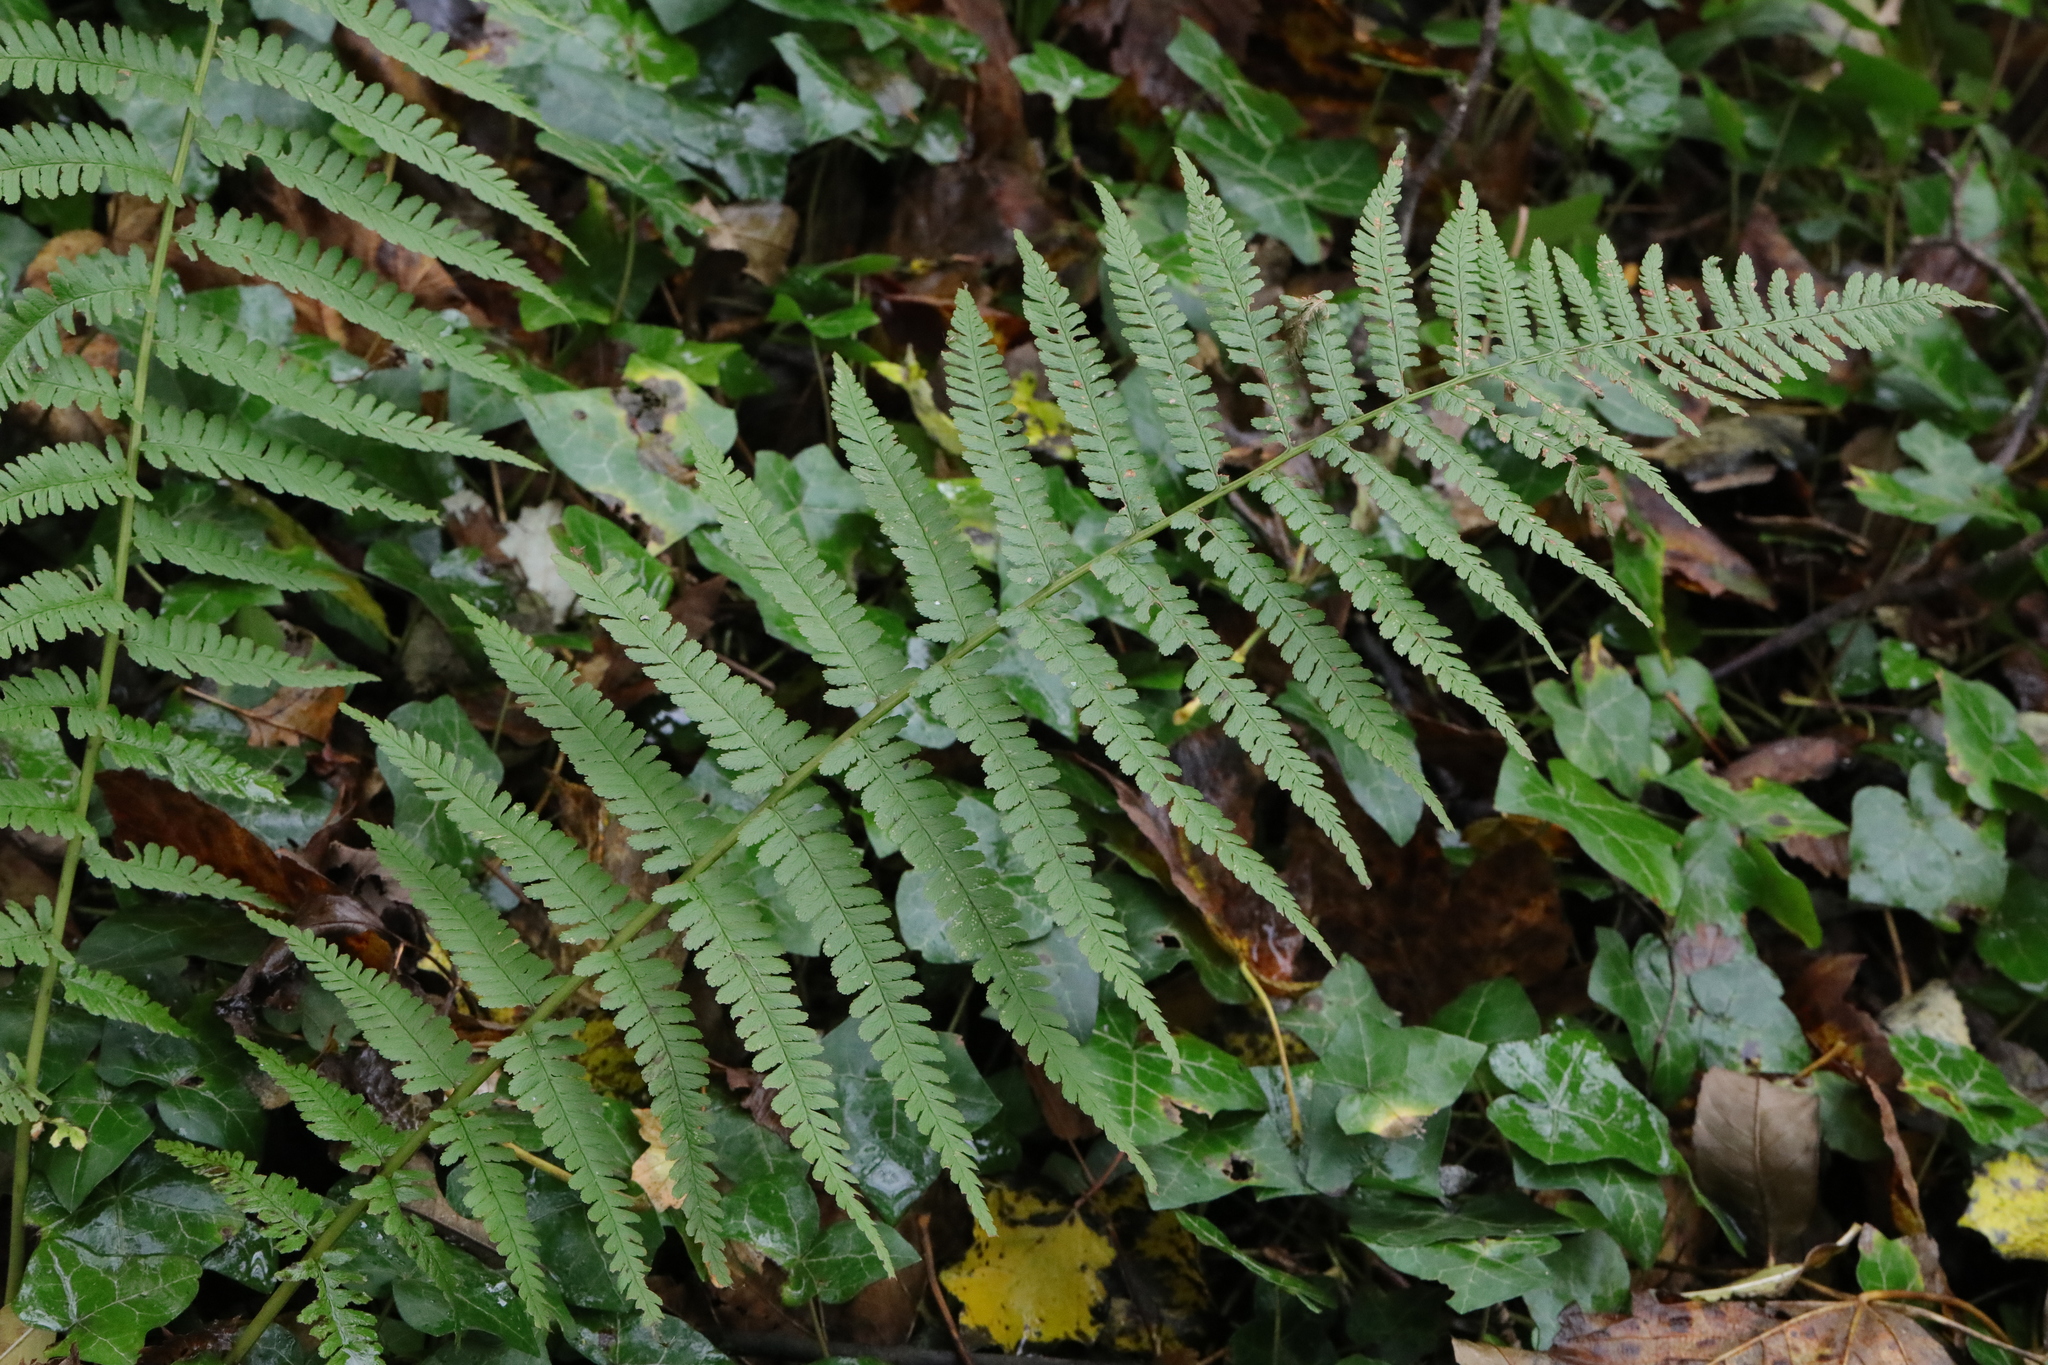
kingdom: Plantae
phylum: Tracheophyta
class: Polypodiopsida
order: Polypodiales
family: Dryopteridaceae
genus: Dryopteris
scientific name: Dryopteris filix-mas
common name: Male fern
